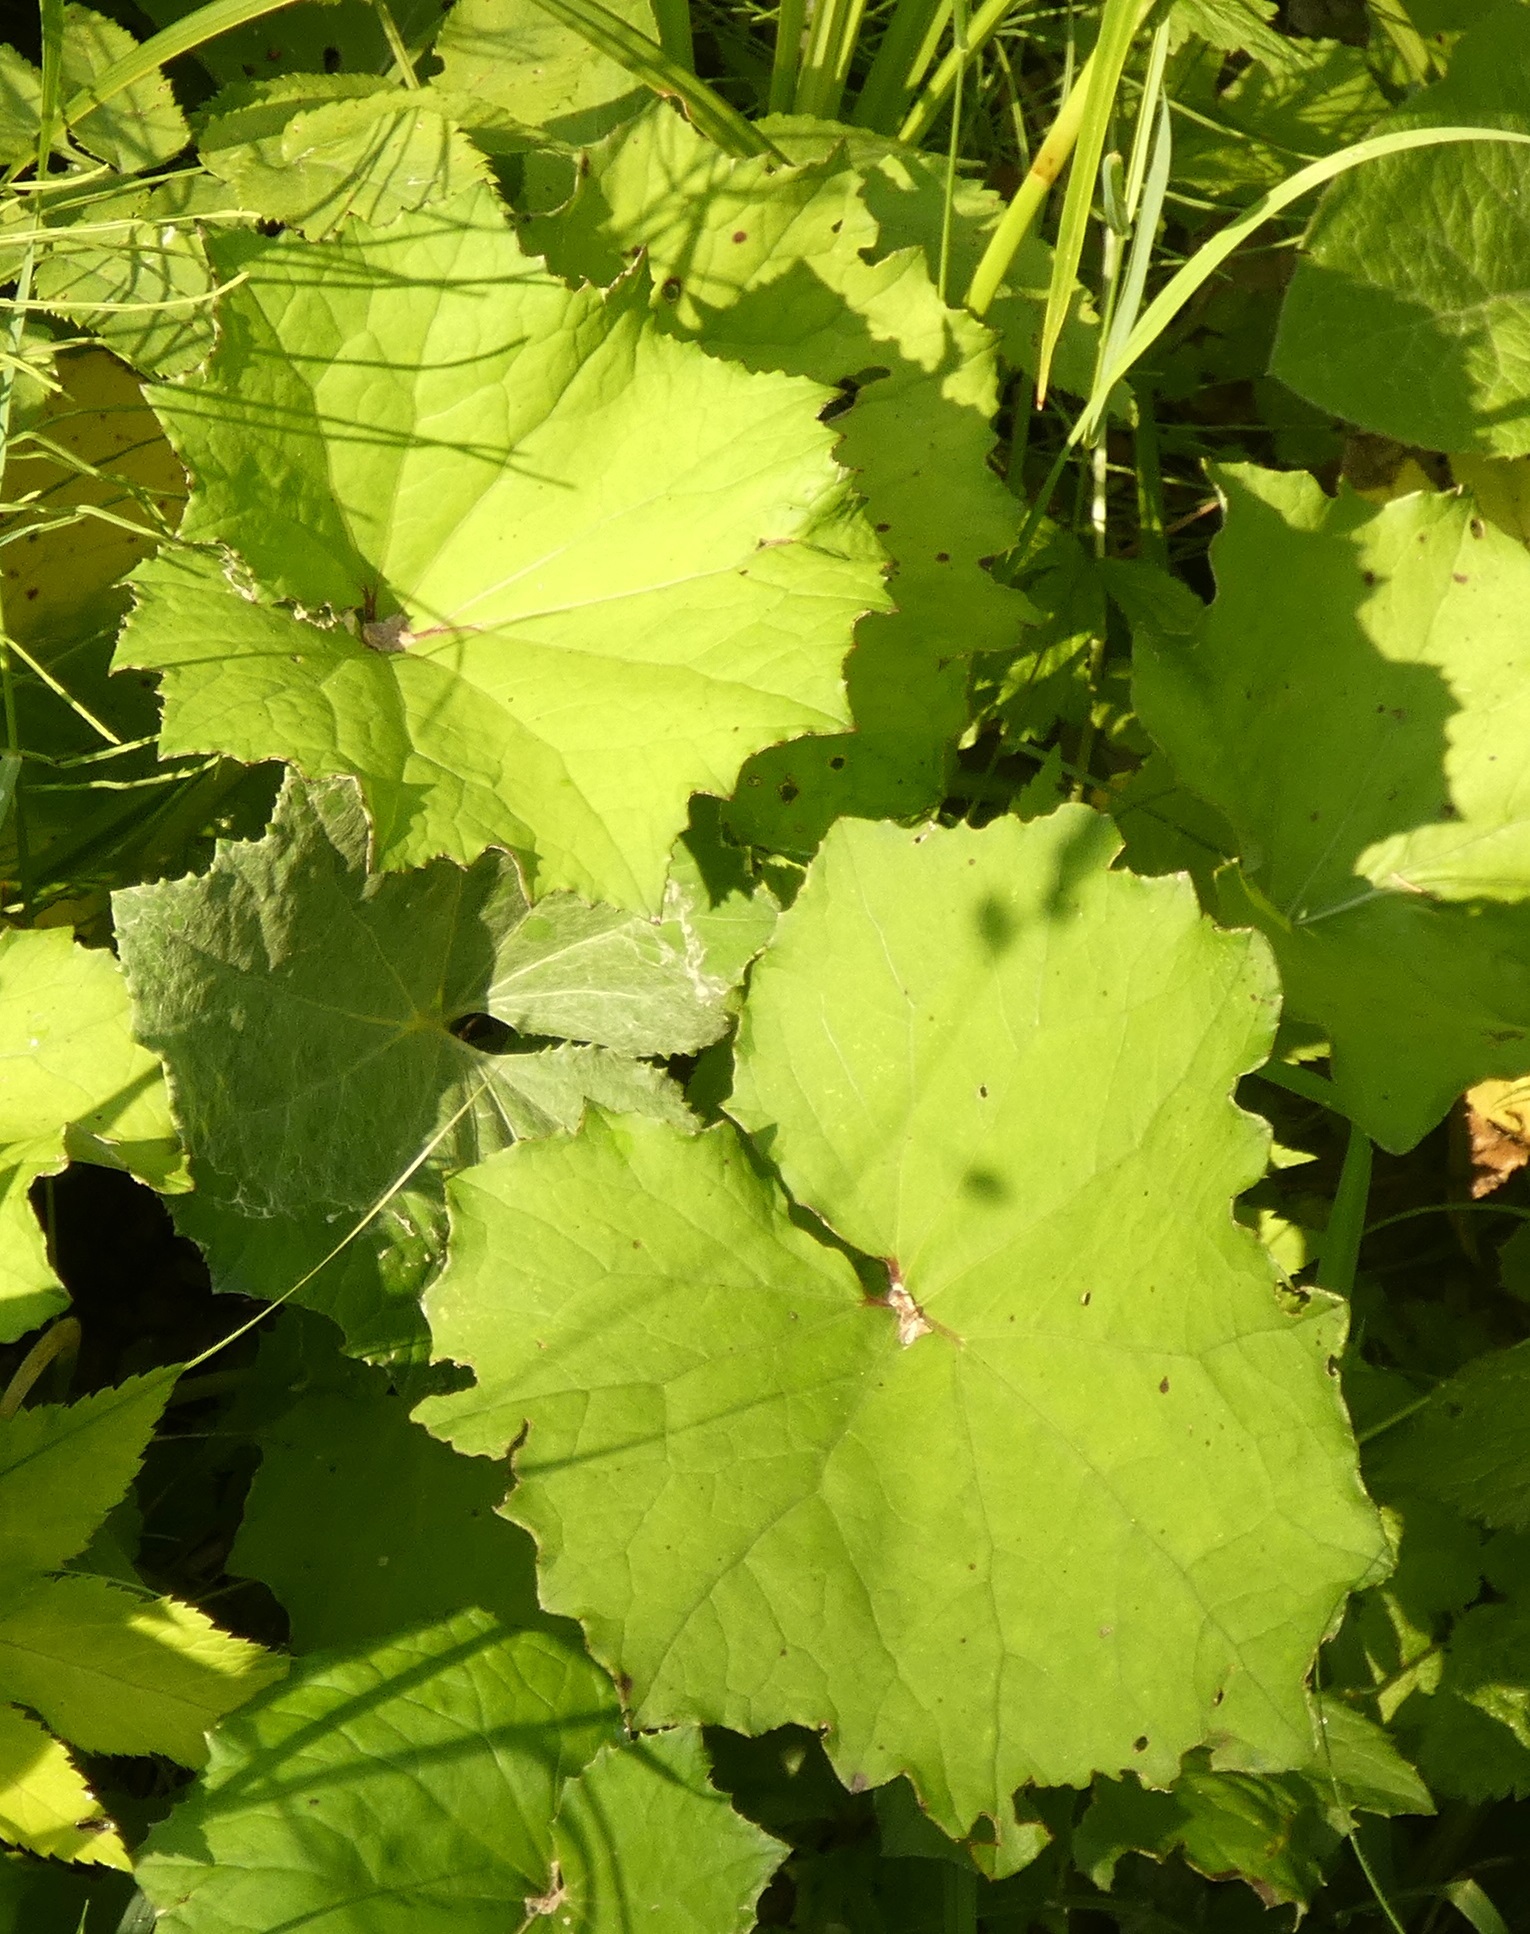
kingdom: Plantae
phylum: Tracheophyta
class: Magnoliopsida
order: Asterales
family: Asteraceae
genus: Tussilago
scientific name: Tussilago farfara
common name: Coltsfoot
